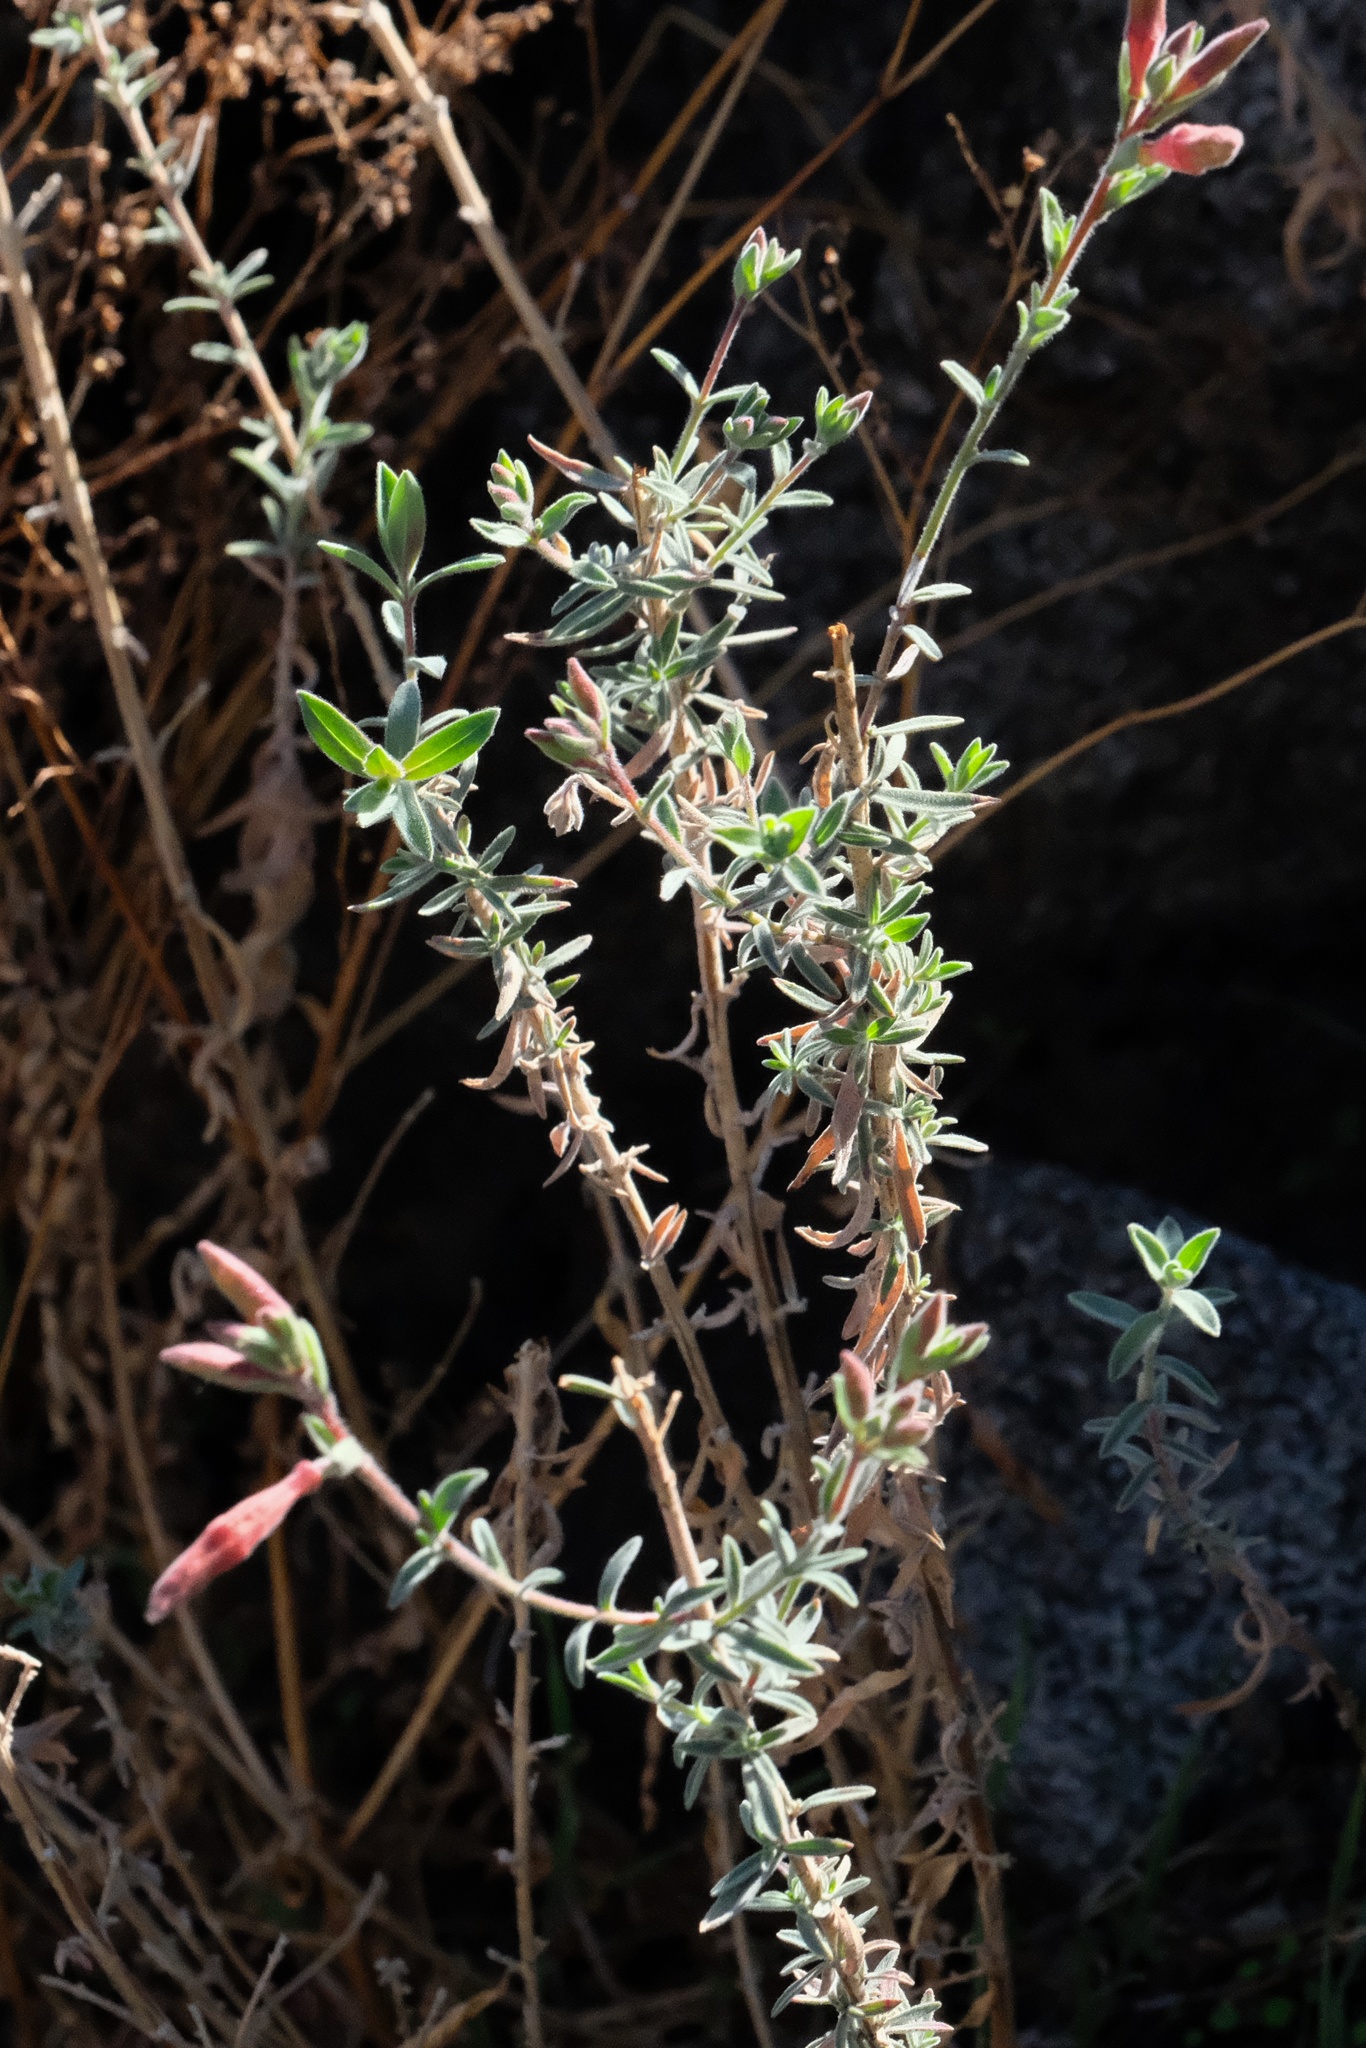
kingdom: Plantae
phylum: Tracheophyta
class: Magnoliopsida
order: Myrtales
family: Onagraceae
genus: Epilobium
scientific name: Epilobium canum
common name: California-fuchsia
